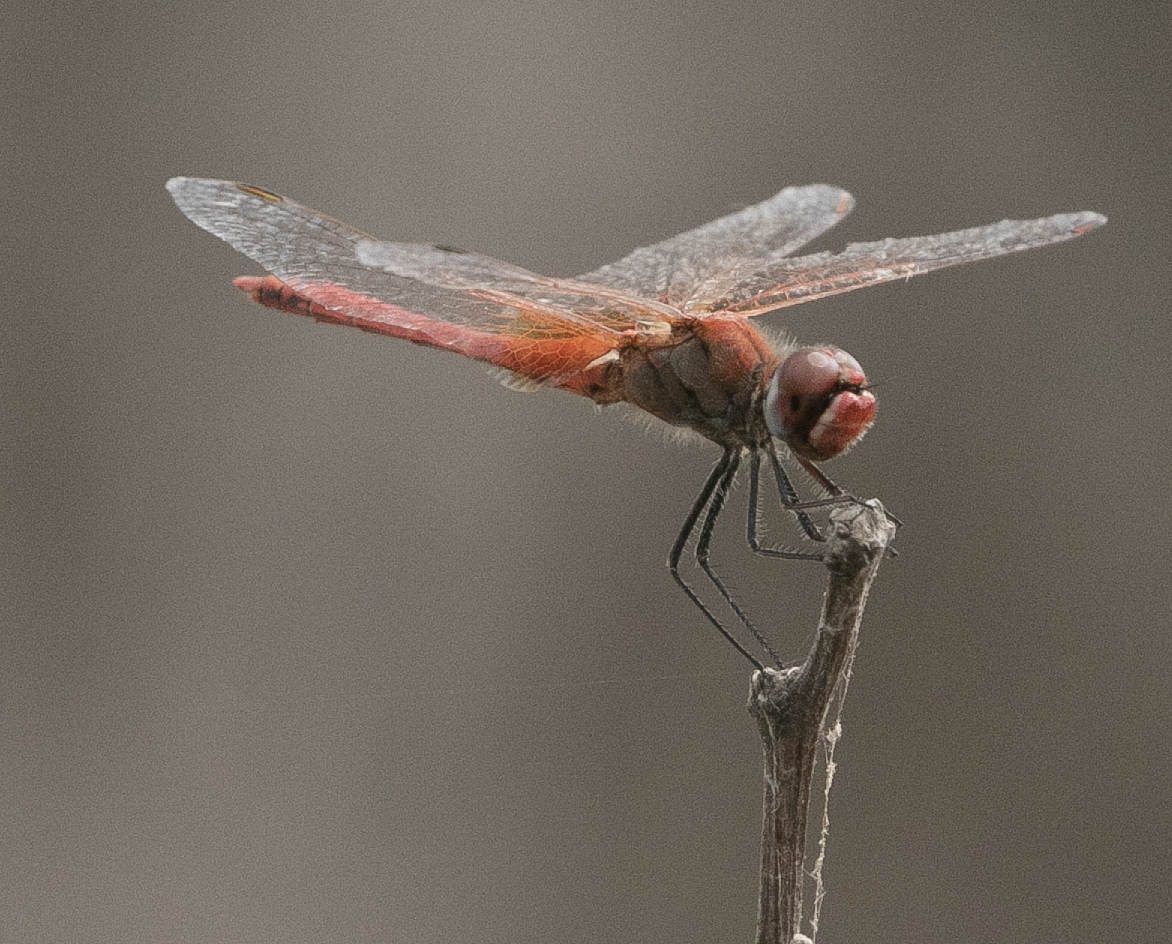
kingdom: Animalia
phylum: Arthropoda
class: Insecta
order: Odonata
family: Libellulidae
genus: Sympetrum
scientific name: Sympetrum fonscolombii
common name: Red-veined darter
